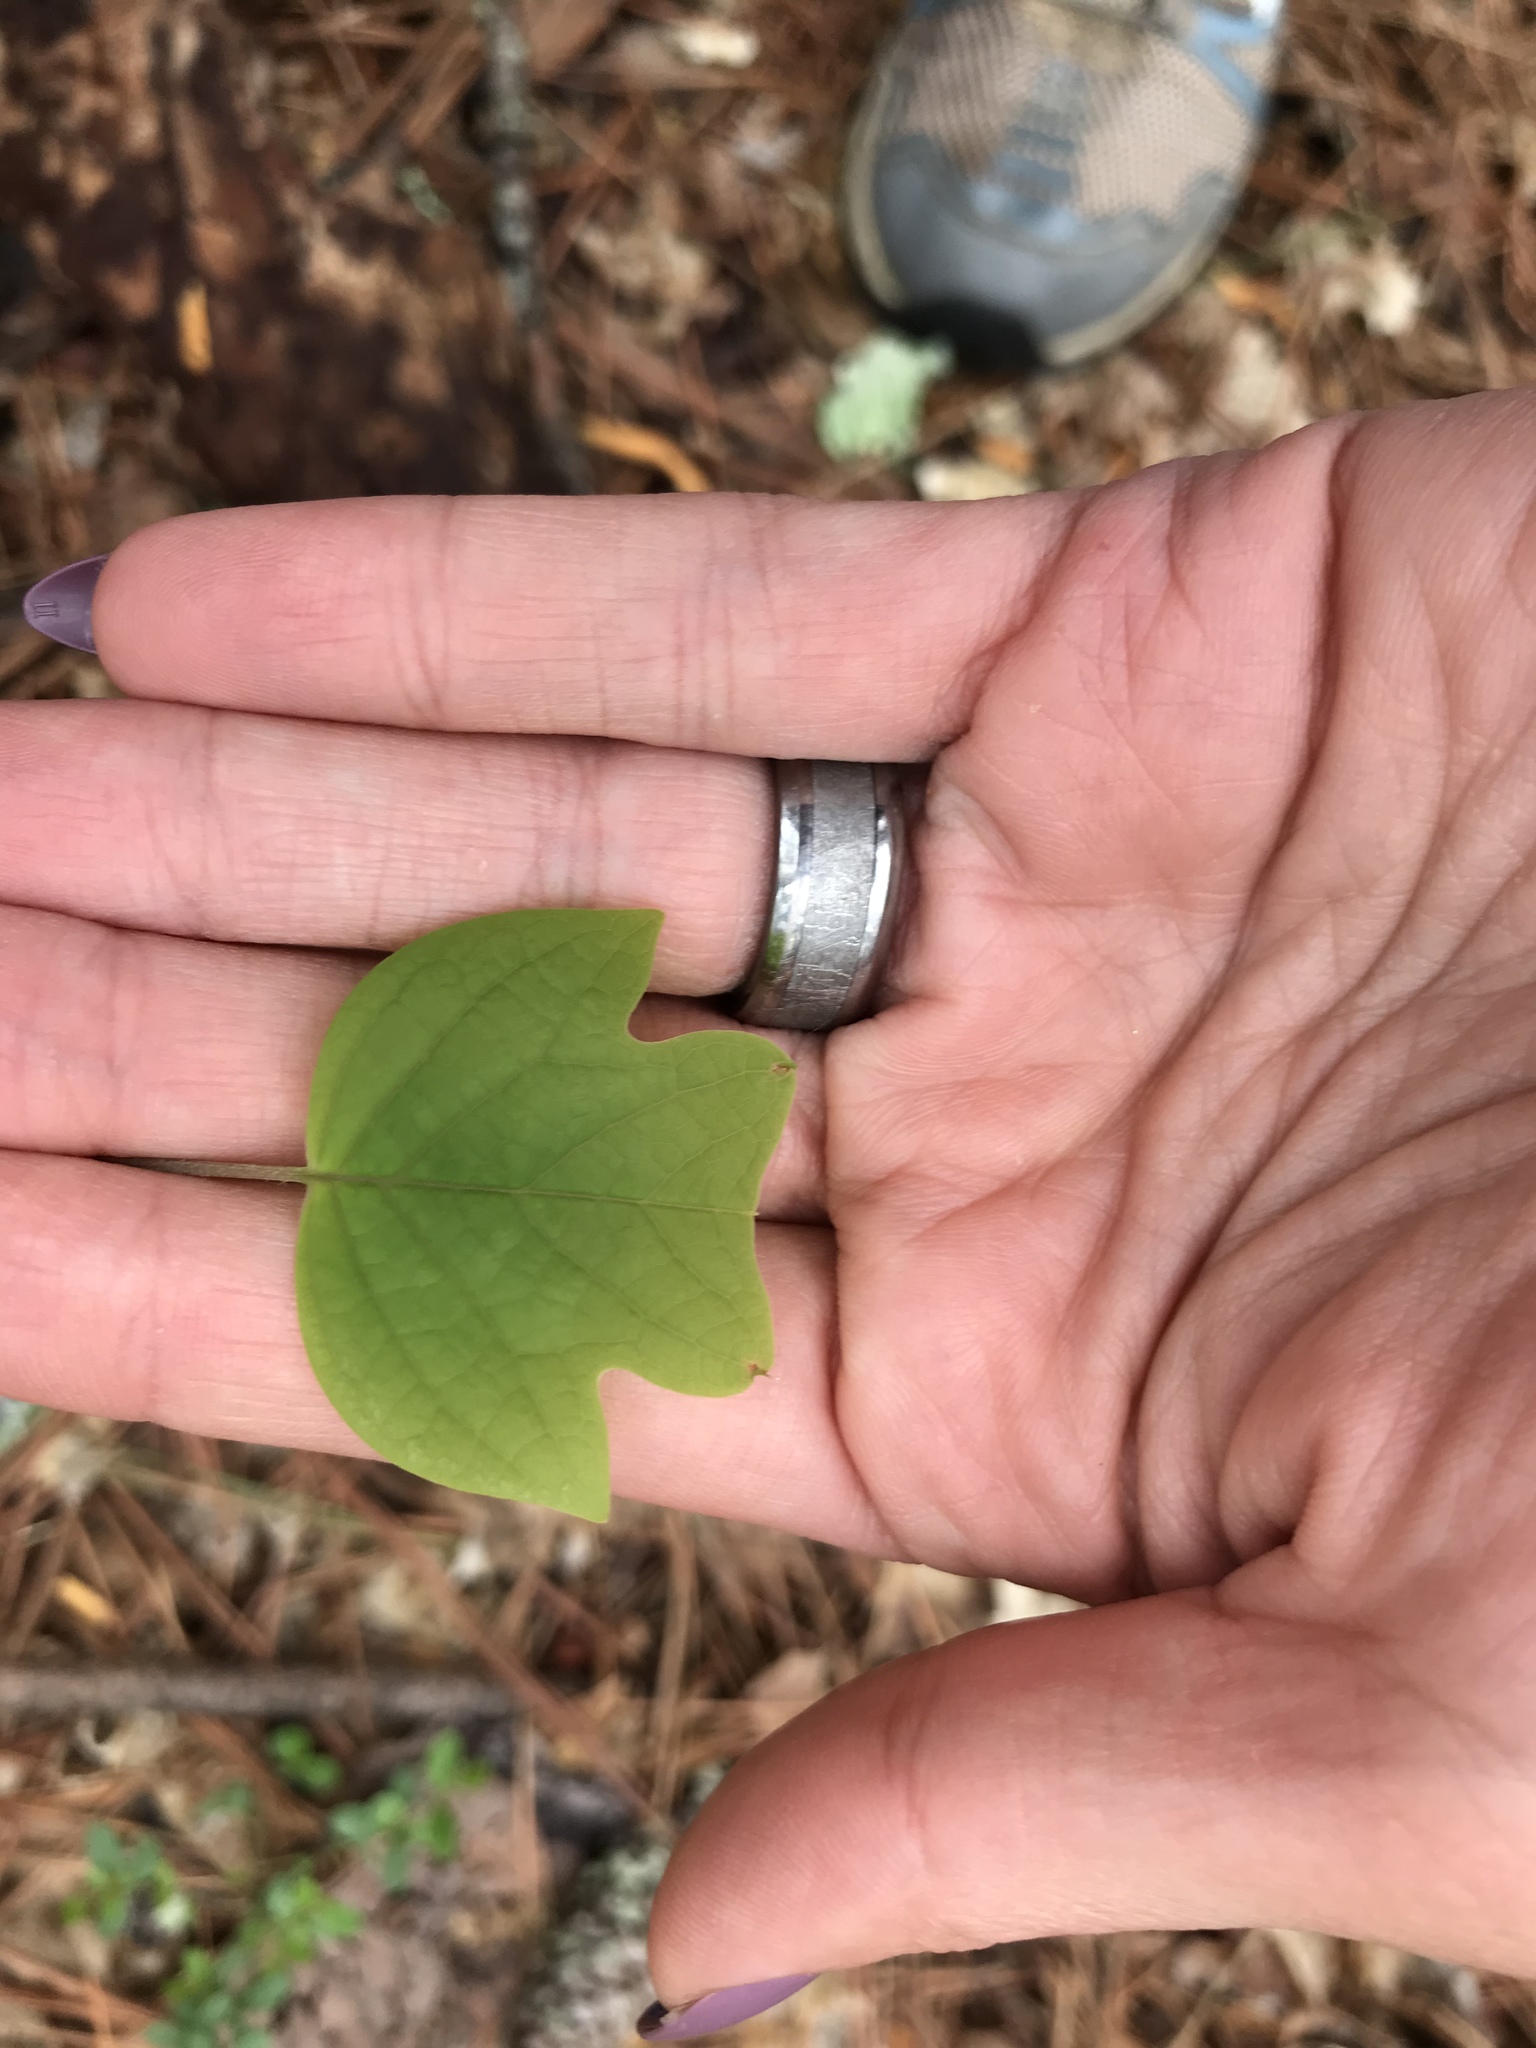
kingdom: Plantae
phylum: Tracheophyta
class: Magnoliopsida
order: Magnoliales
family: Magnoliaceae
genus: Liriodendron
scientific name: Liriodendron tulipifera
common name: Tulip tree
